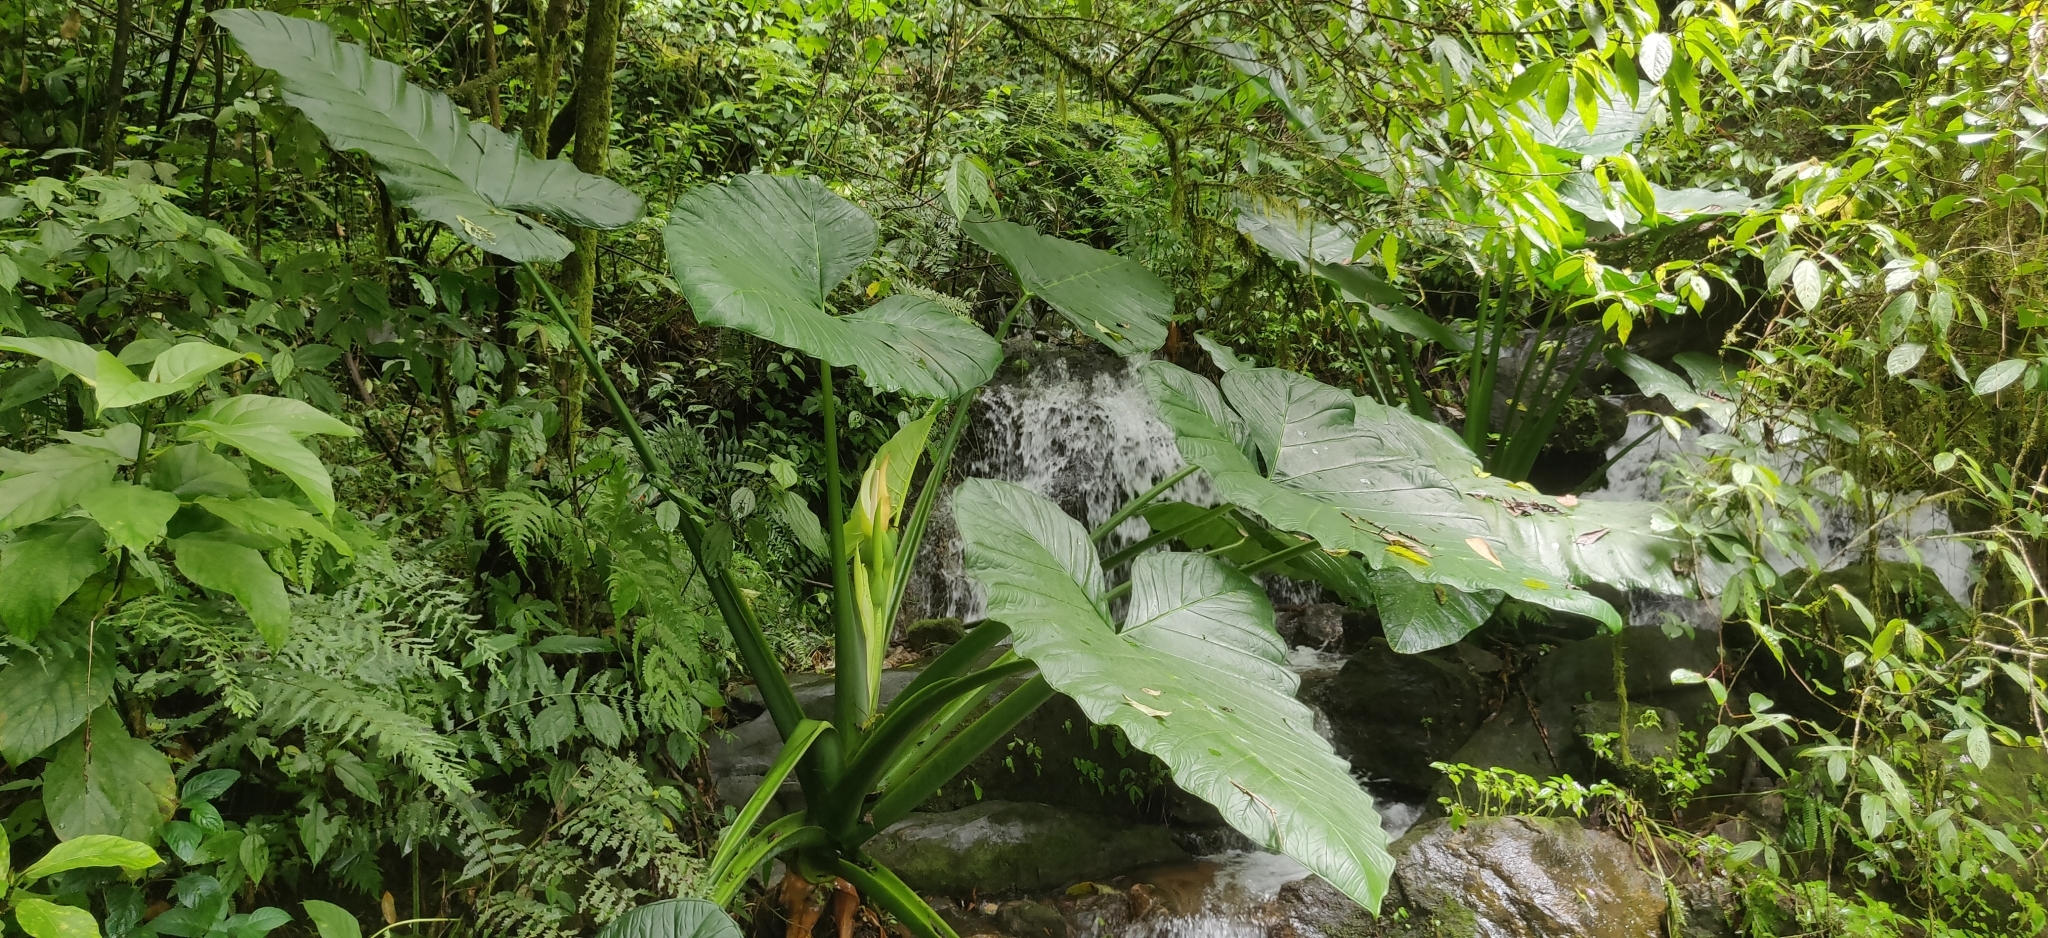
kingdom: Plantae
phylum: Tracheophyta
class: Liliopsida
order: Alismatales
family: Araceae
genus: Xanthosoma
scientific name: Xanthosoma sagittifolium
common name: Arrowleaf elephant's ear
